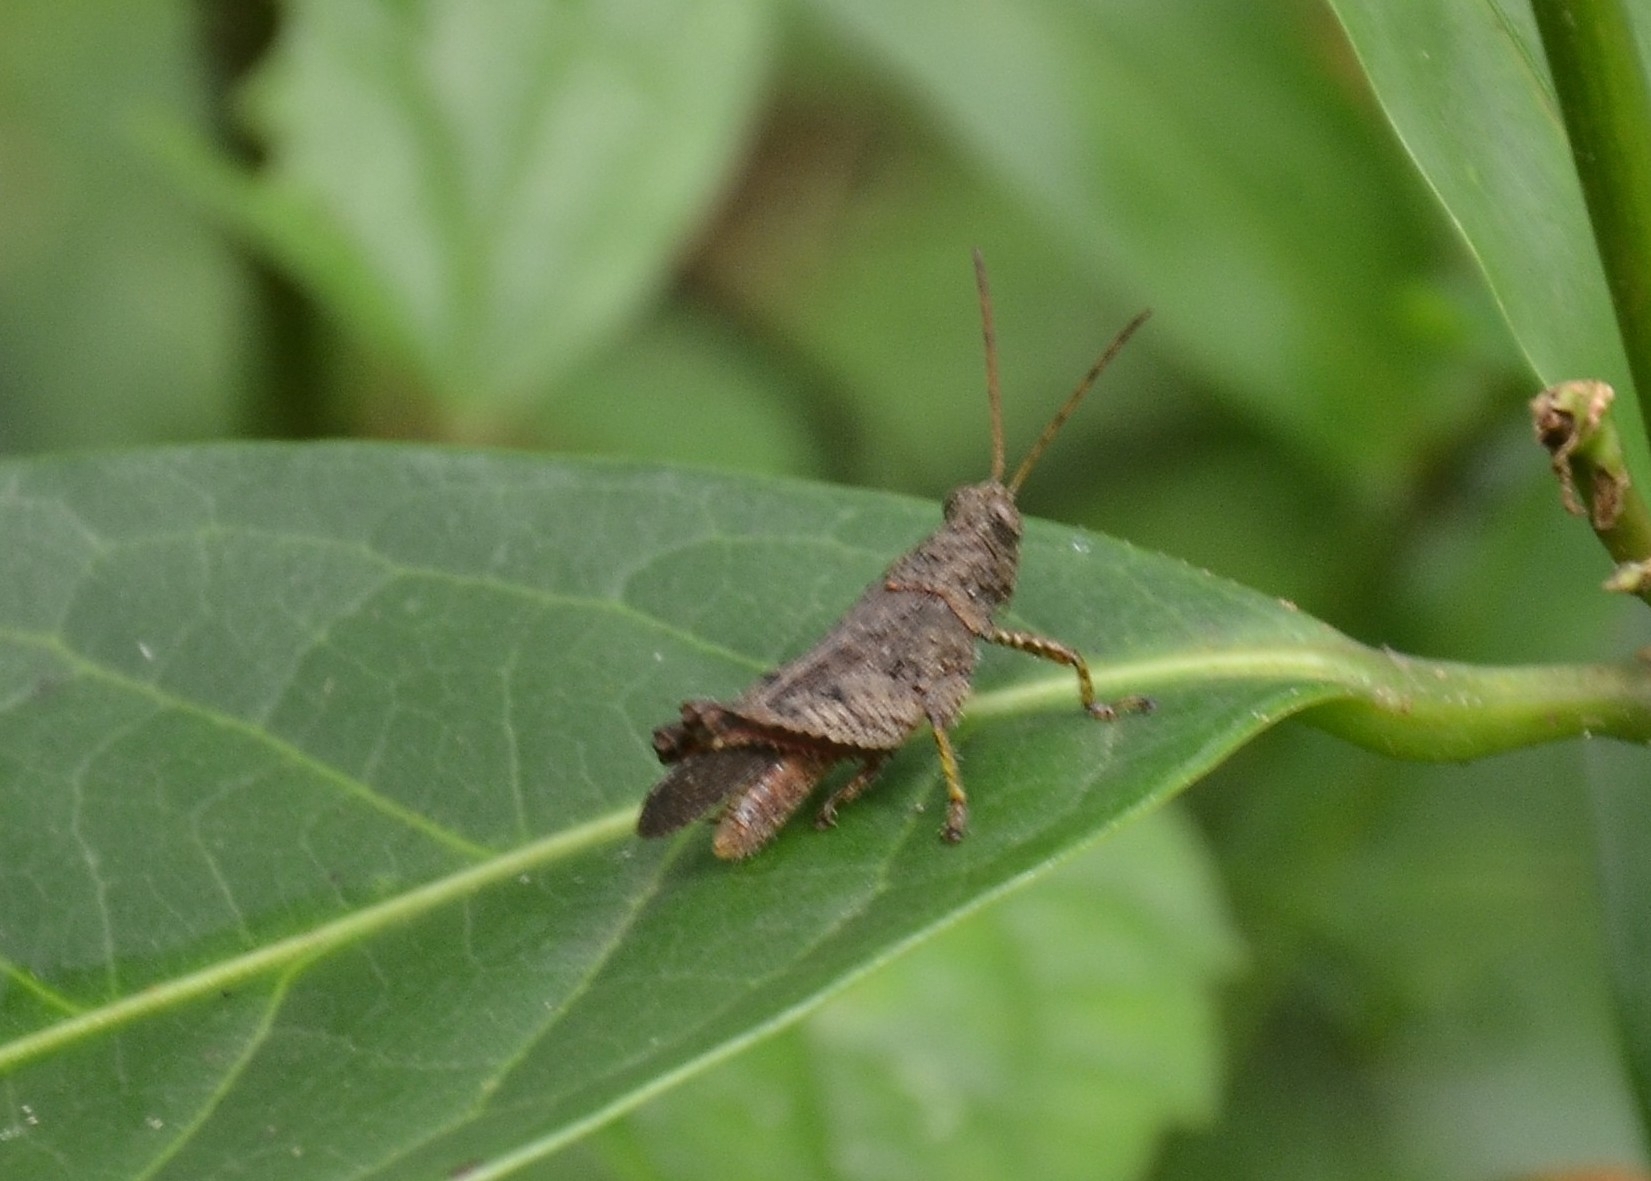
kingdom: Animalia
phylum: Arthropoda
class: Insecta
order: Orthoptera
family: Acrididae
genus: Coptacra
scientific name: Coptacra punctaria
